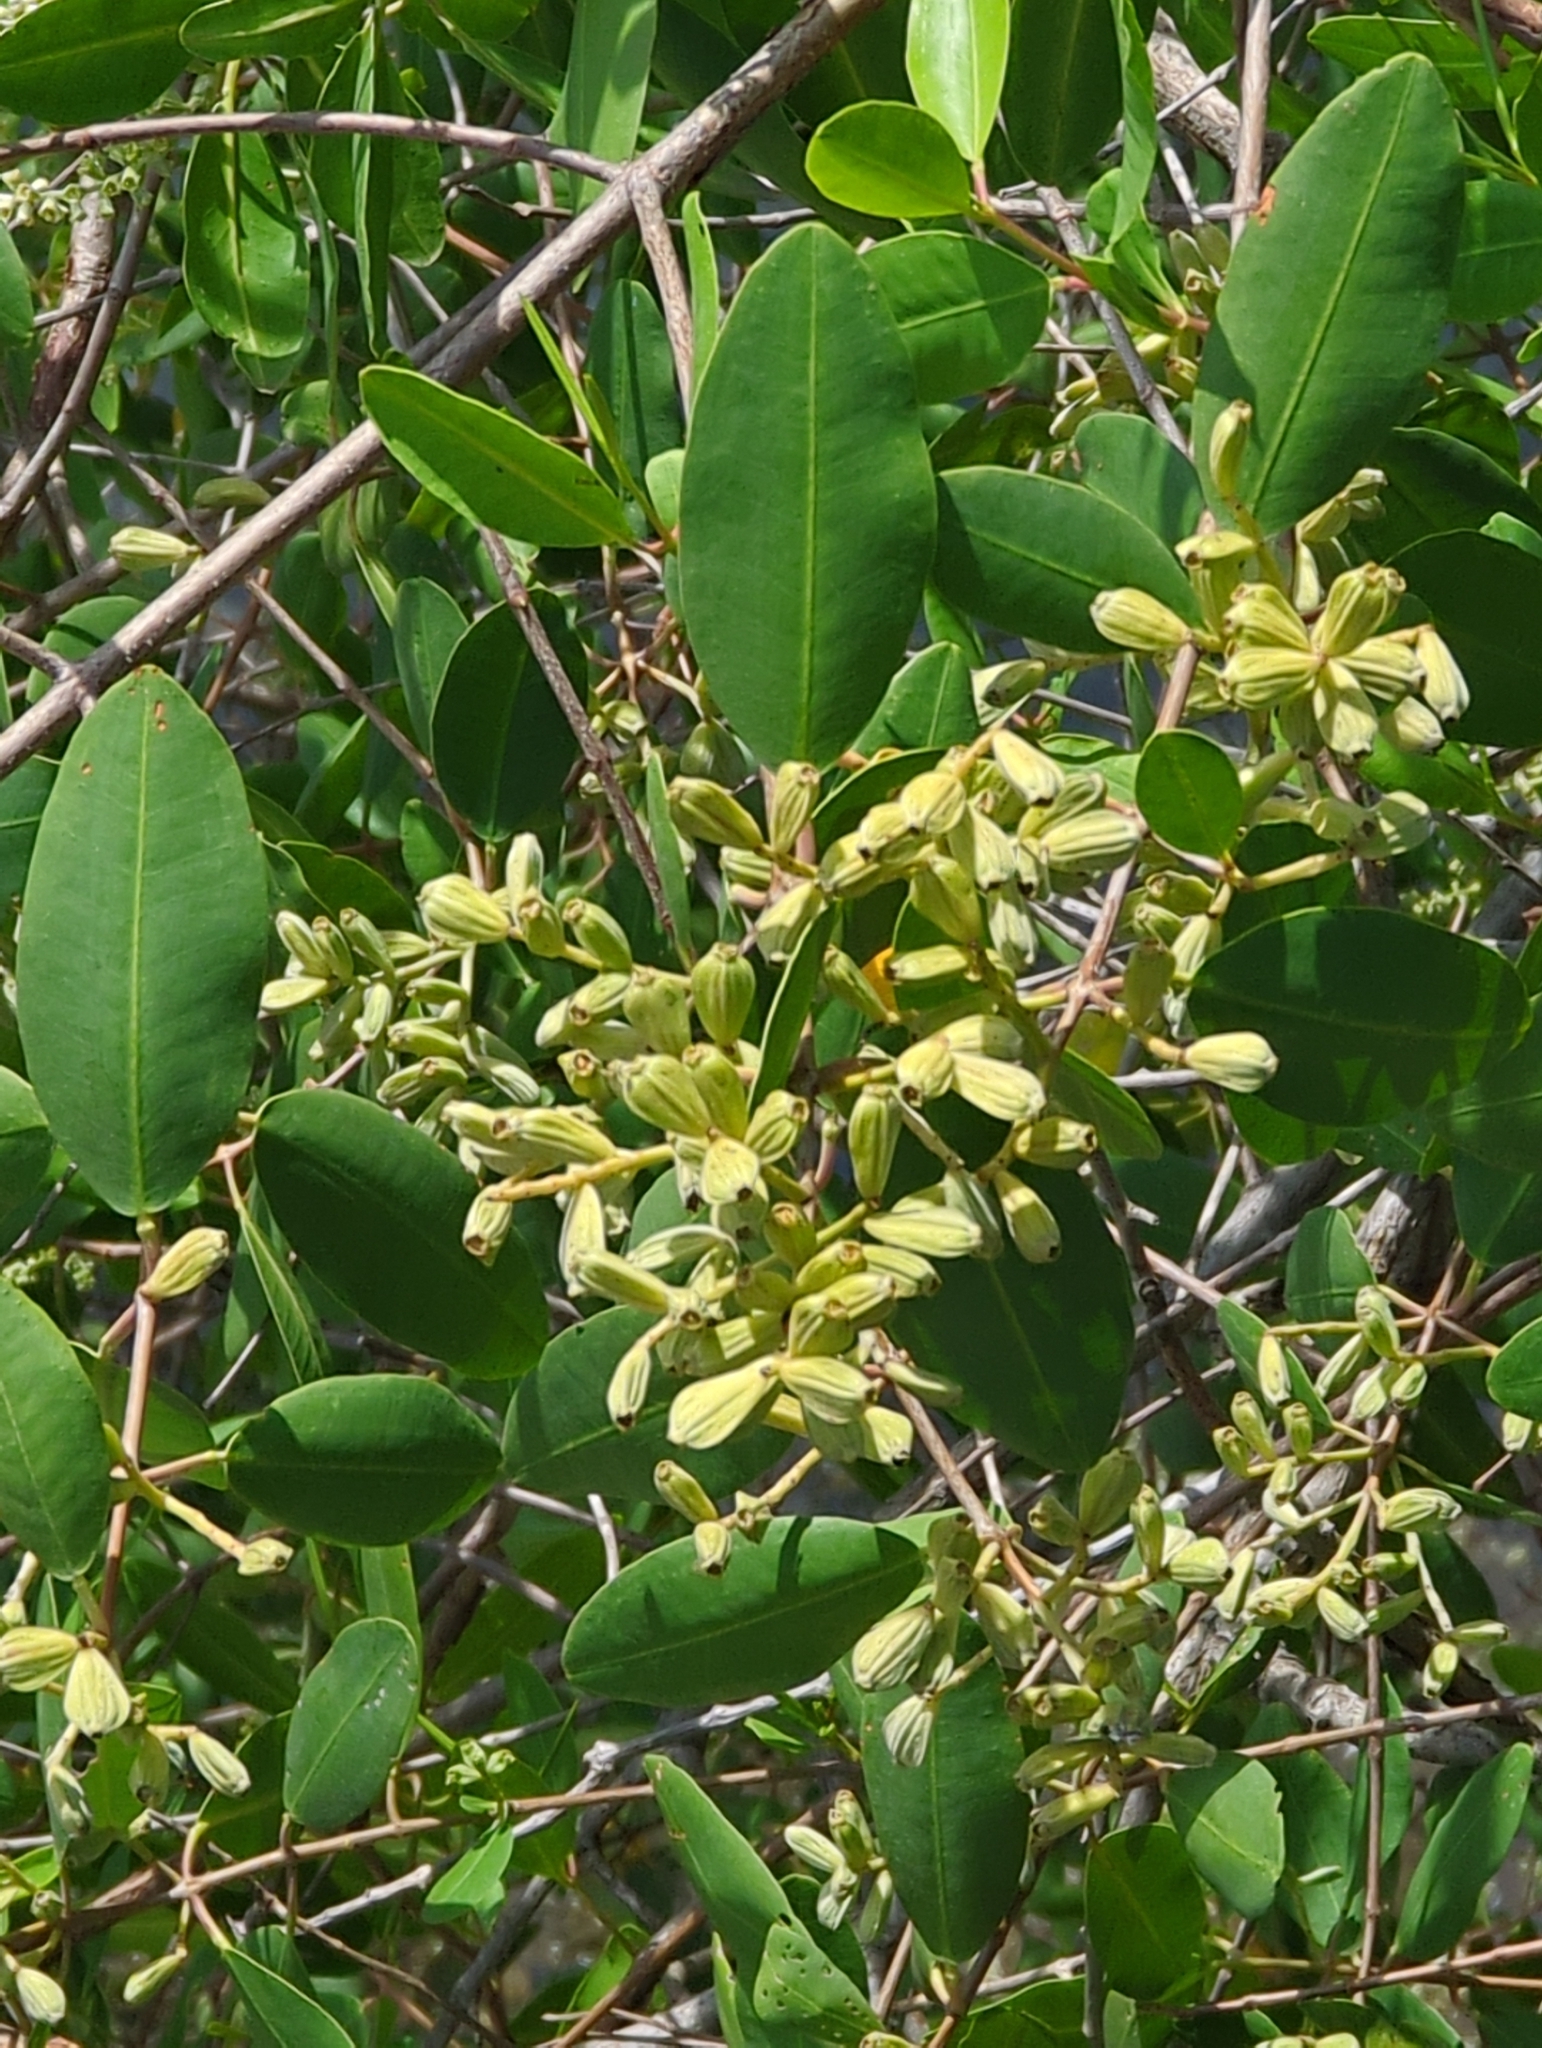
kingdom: Plantae
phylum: Tracheophyta
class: Magnoliopsida
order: Myrtales
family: Combretaceae
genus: Laguncularia
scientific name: Laguncularia racemosa
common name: White mangrove
